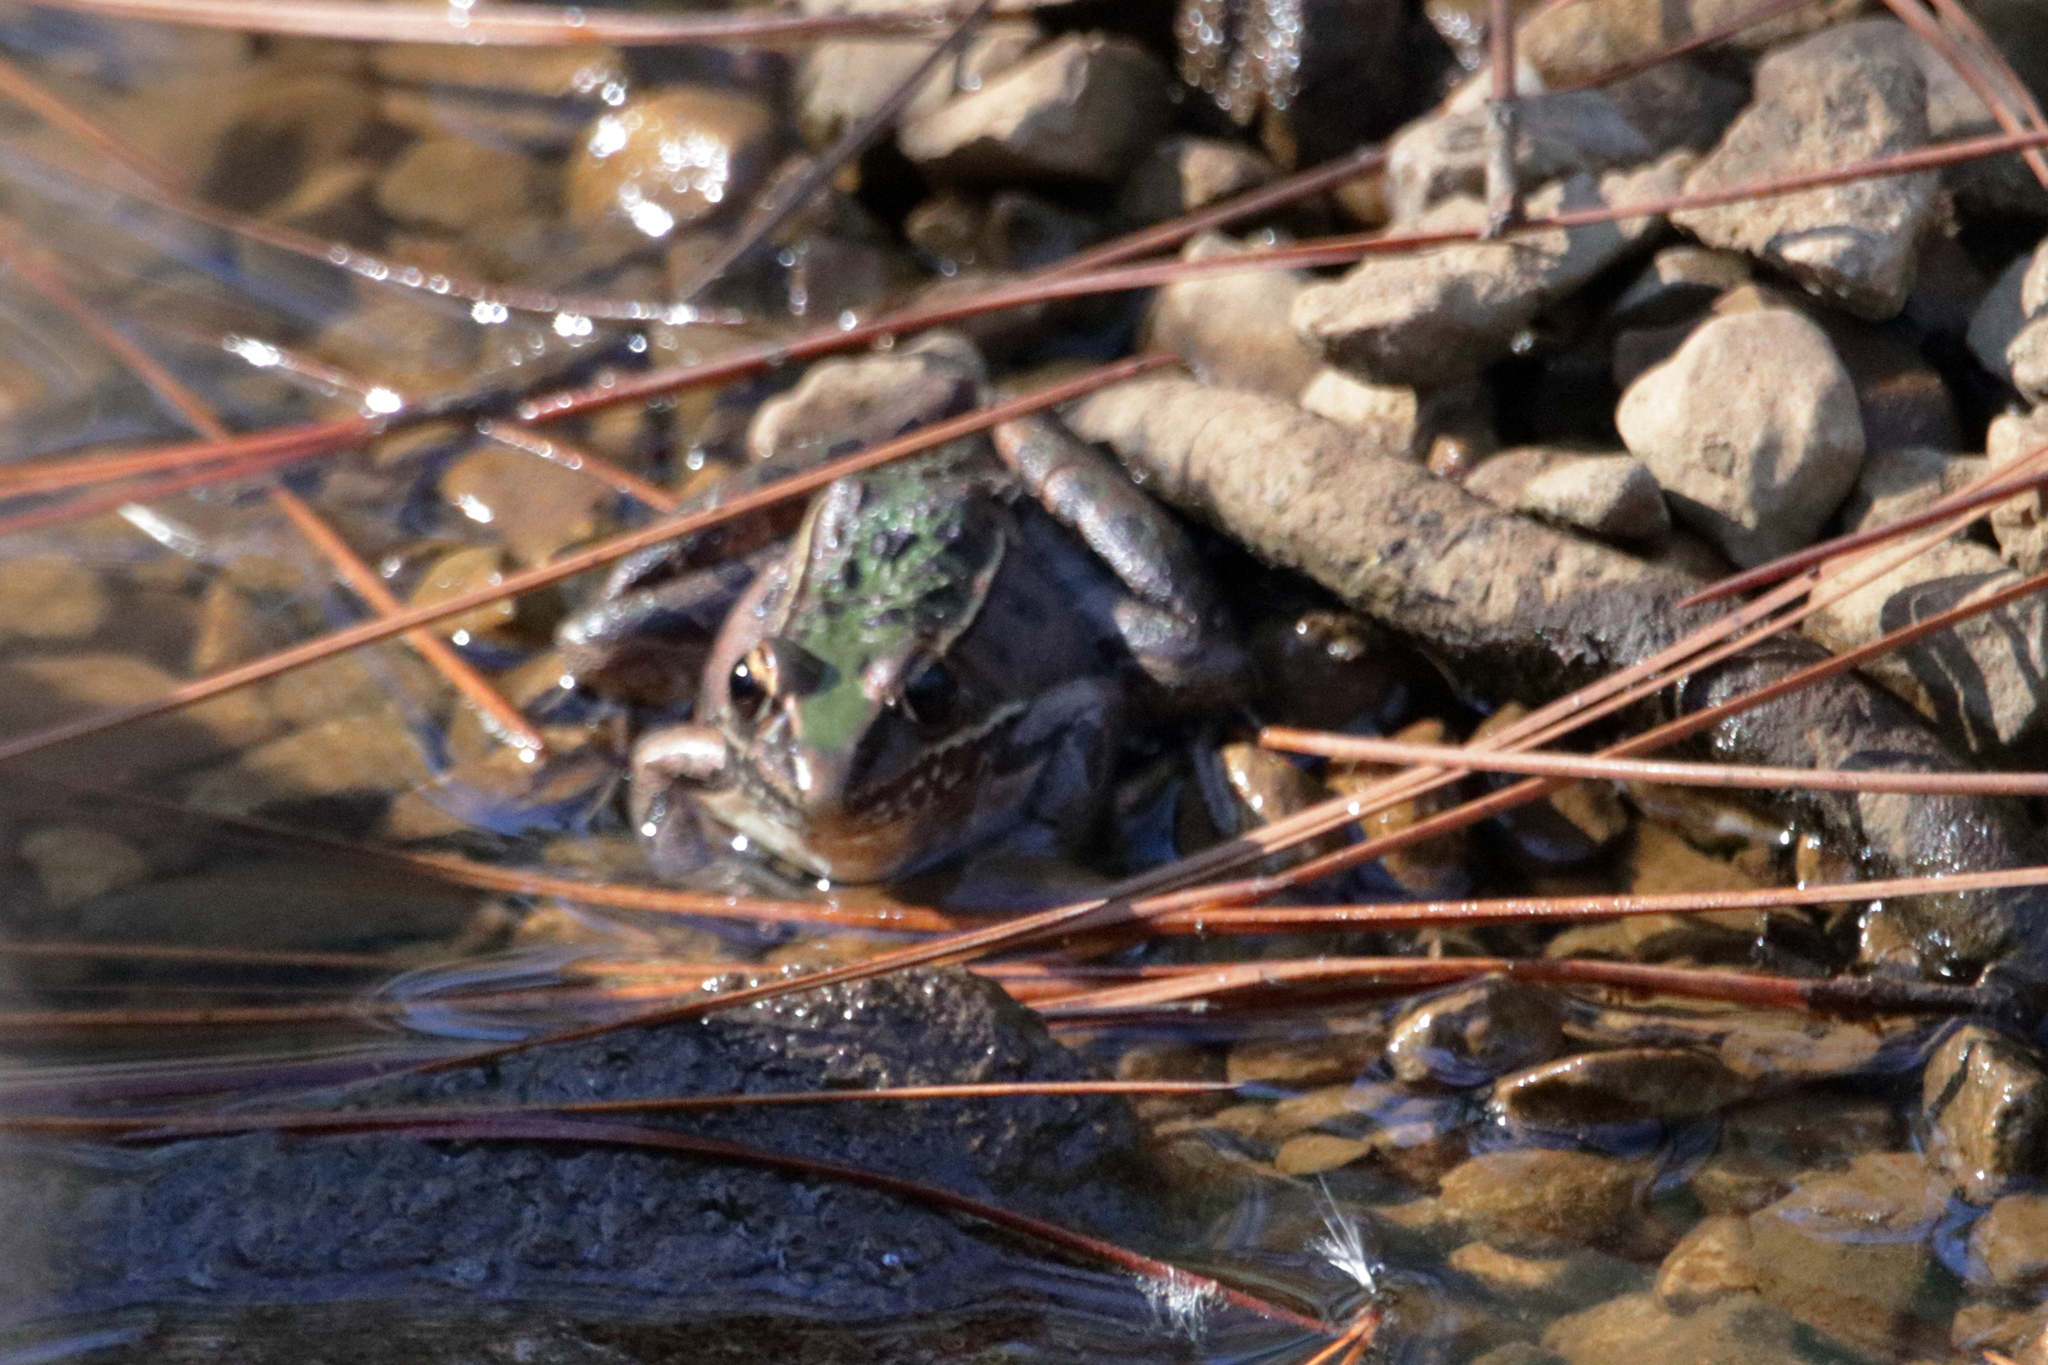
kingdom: Animalia
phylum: Chordata
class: Amphibia
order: Anura
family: Ranidae
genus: Lithobates
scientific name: Lithobates sphenocephalus
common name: Southern leopard frog
